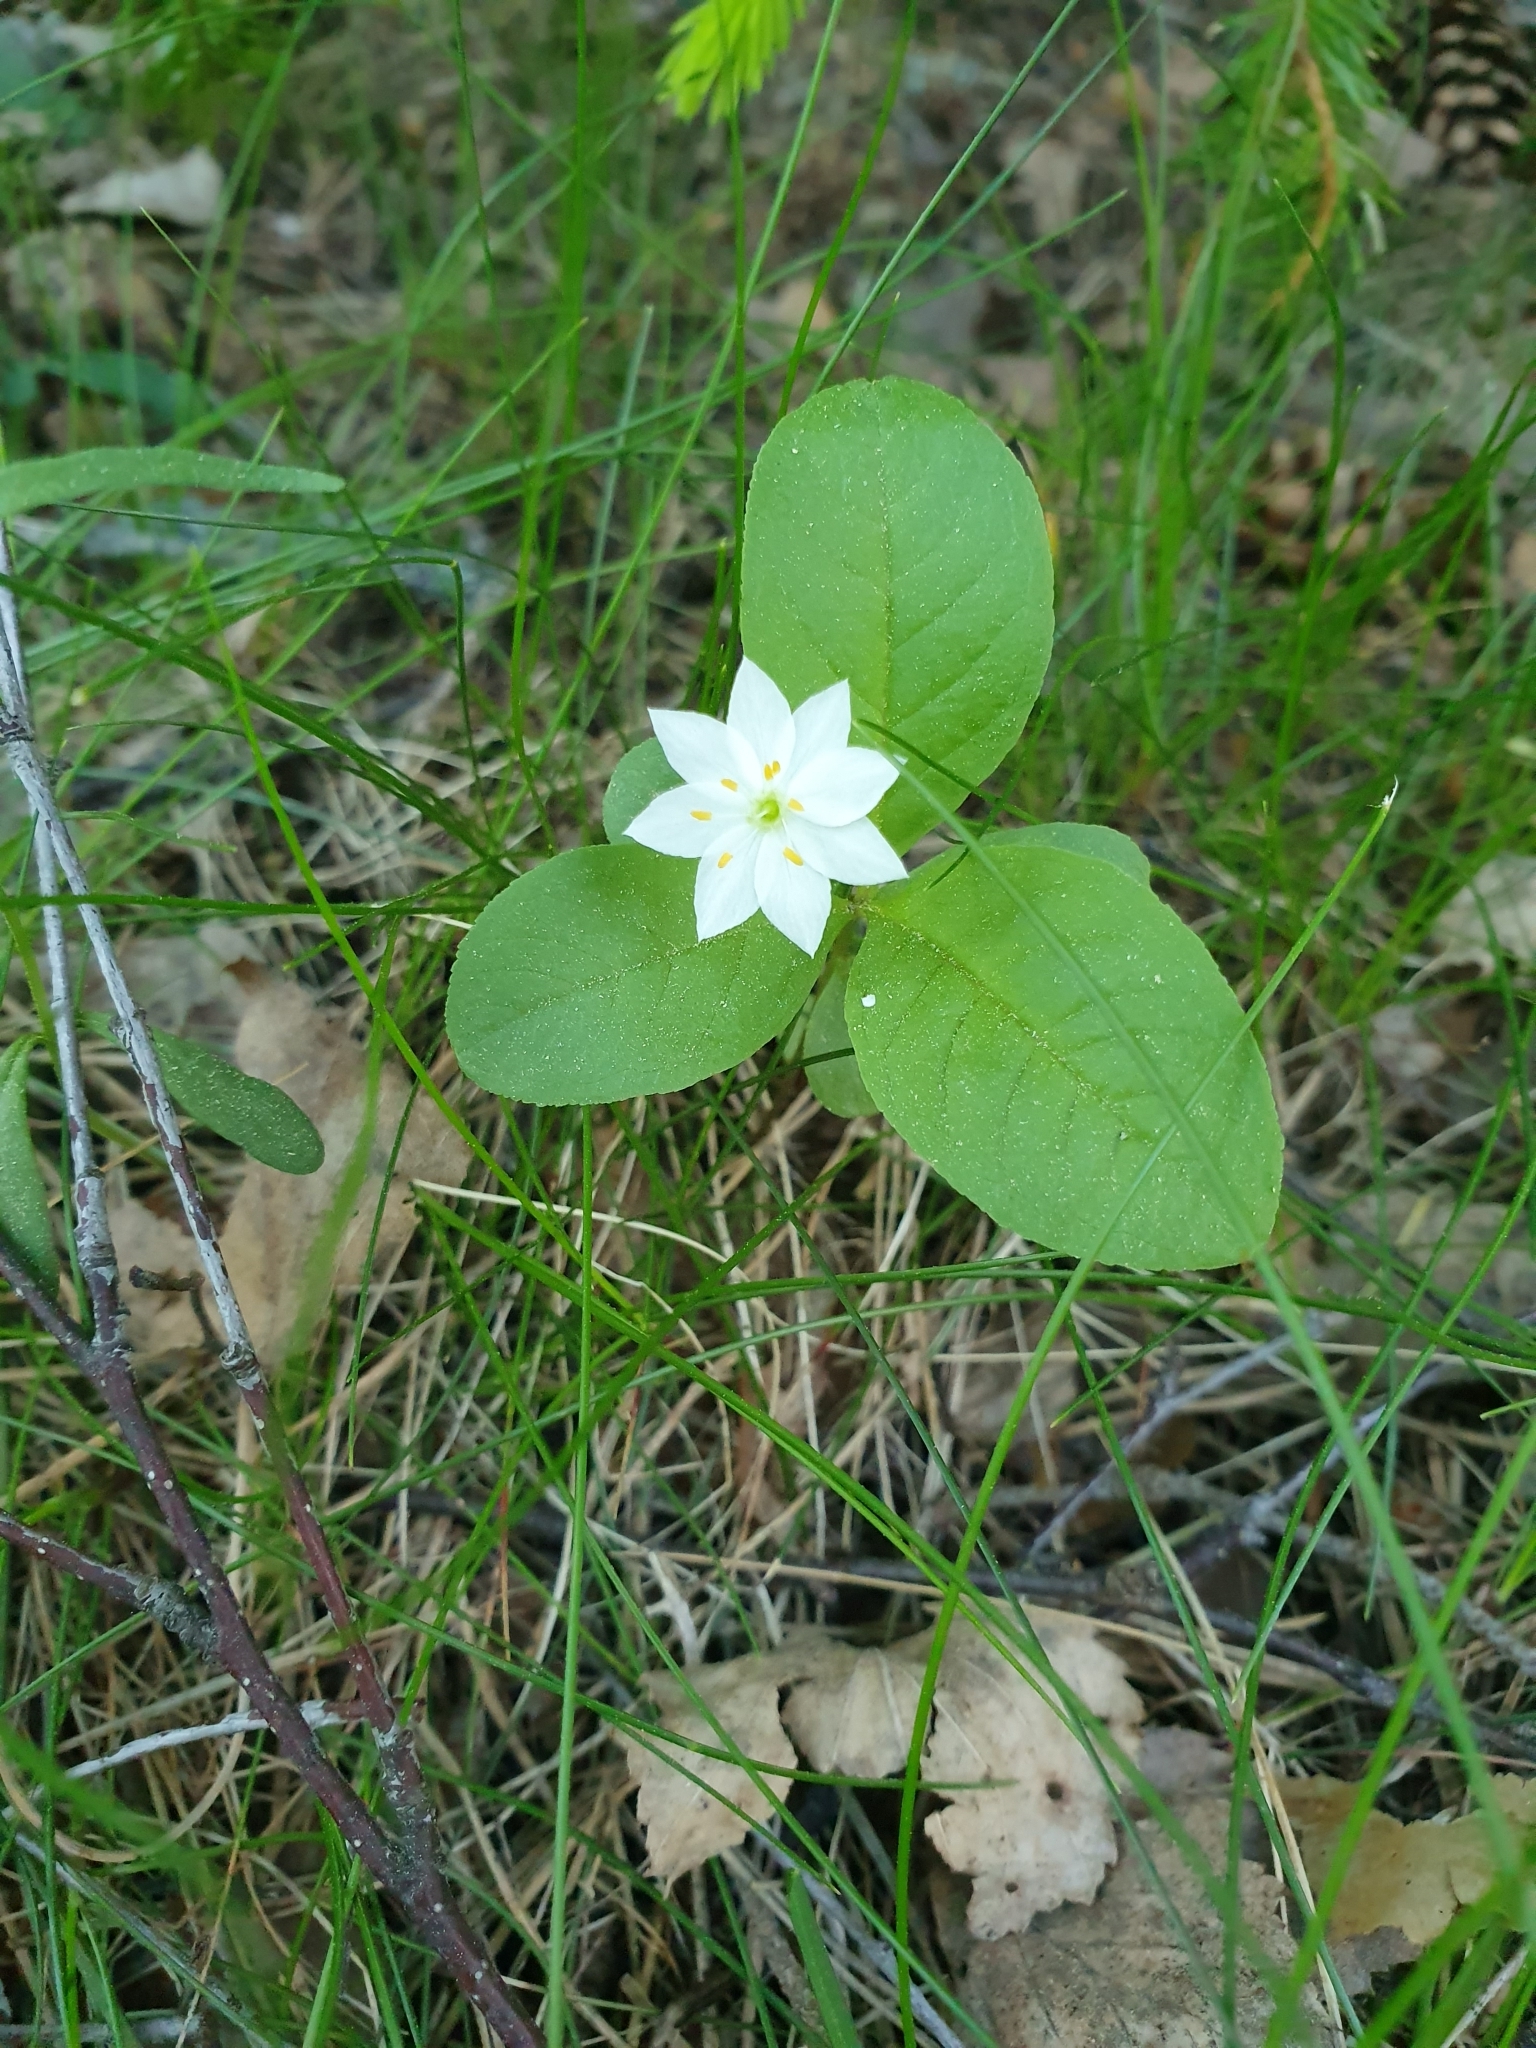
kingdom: Plantae
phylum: Tracheophyta
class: Magnoliopsida
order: Ericales
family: Primulaceae
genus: Lysimachia
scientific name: Lysimachia europaea
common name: Arctic starflower
